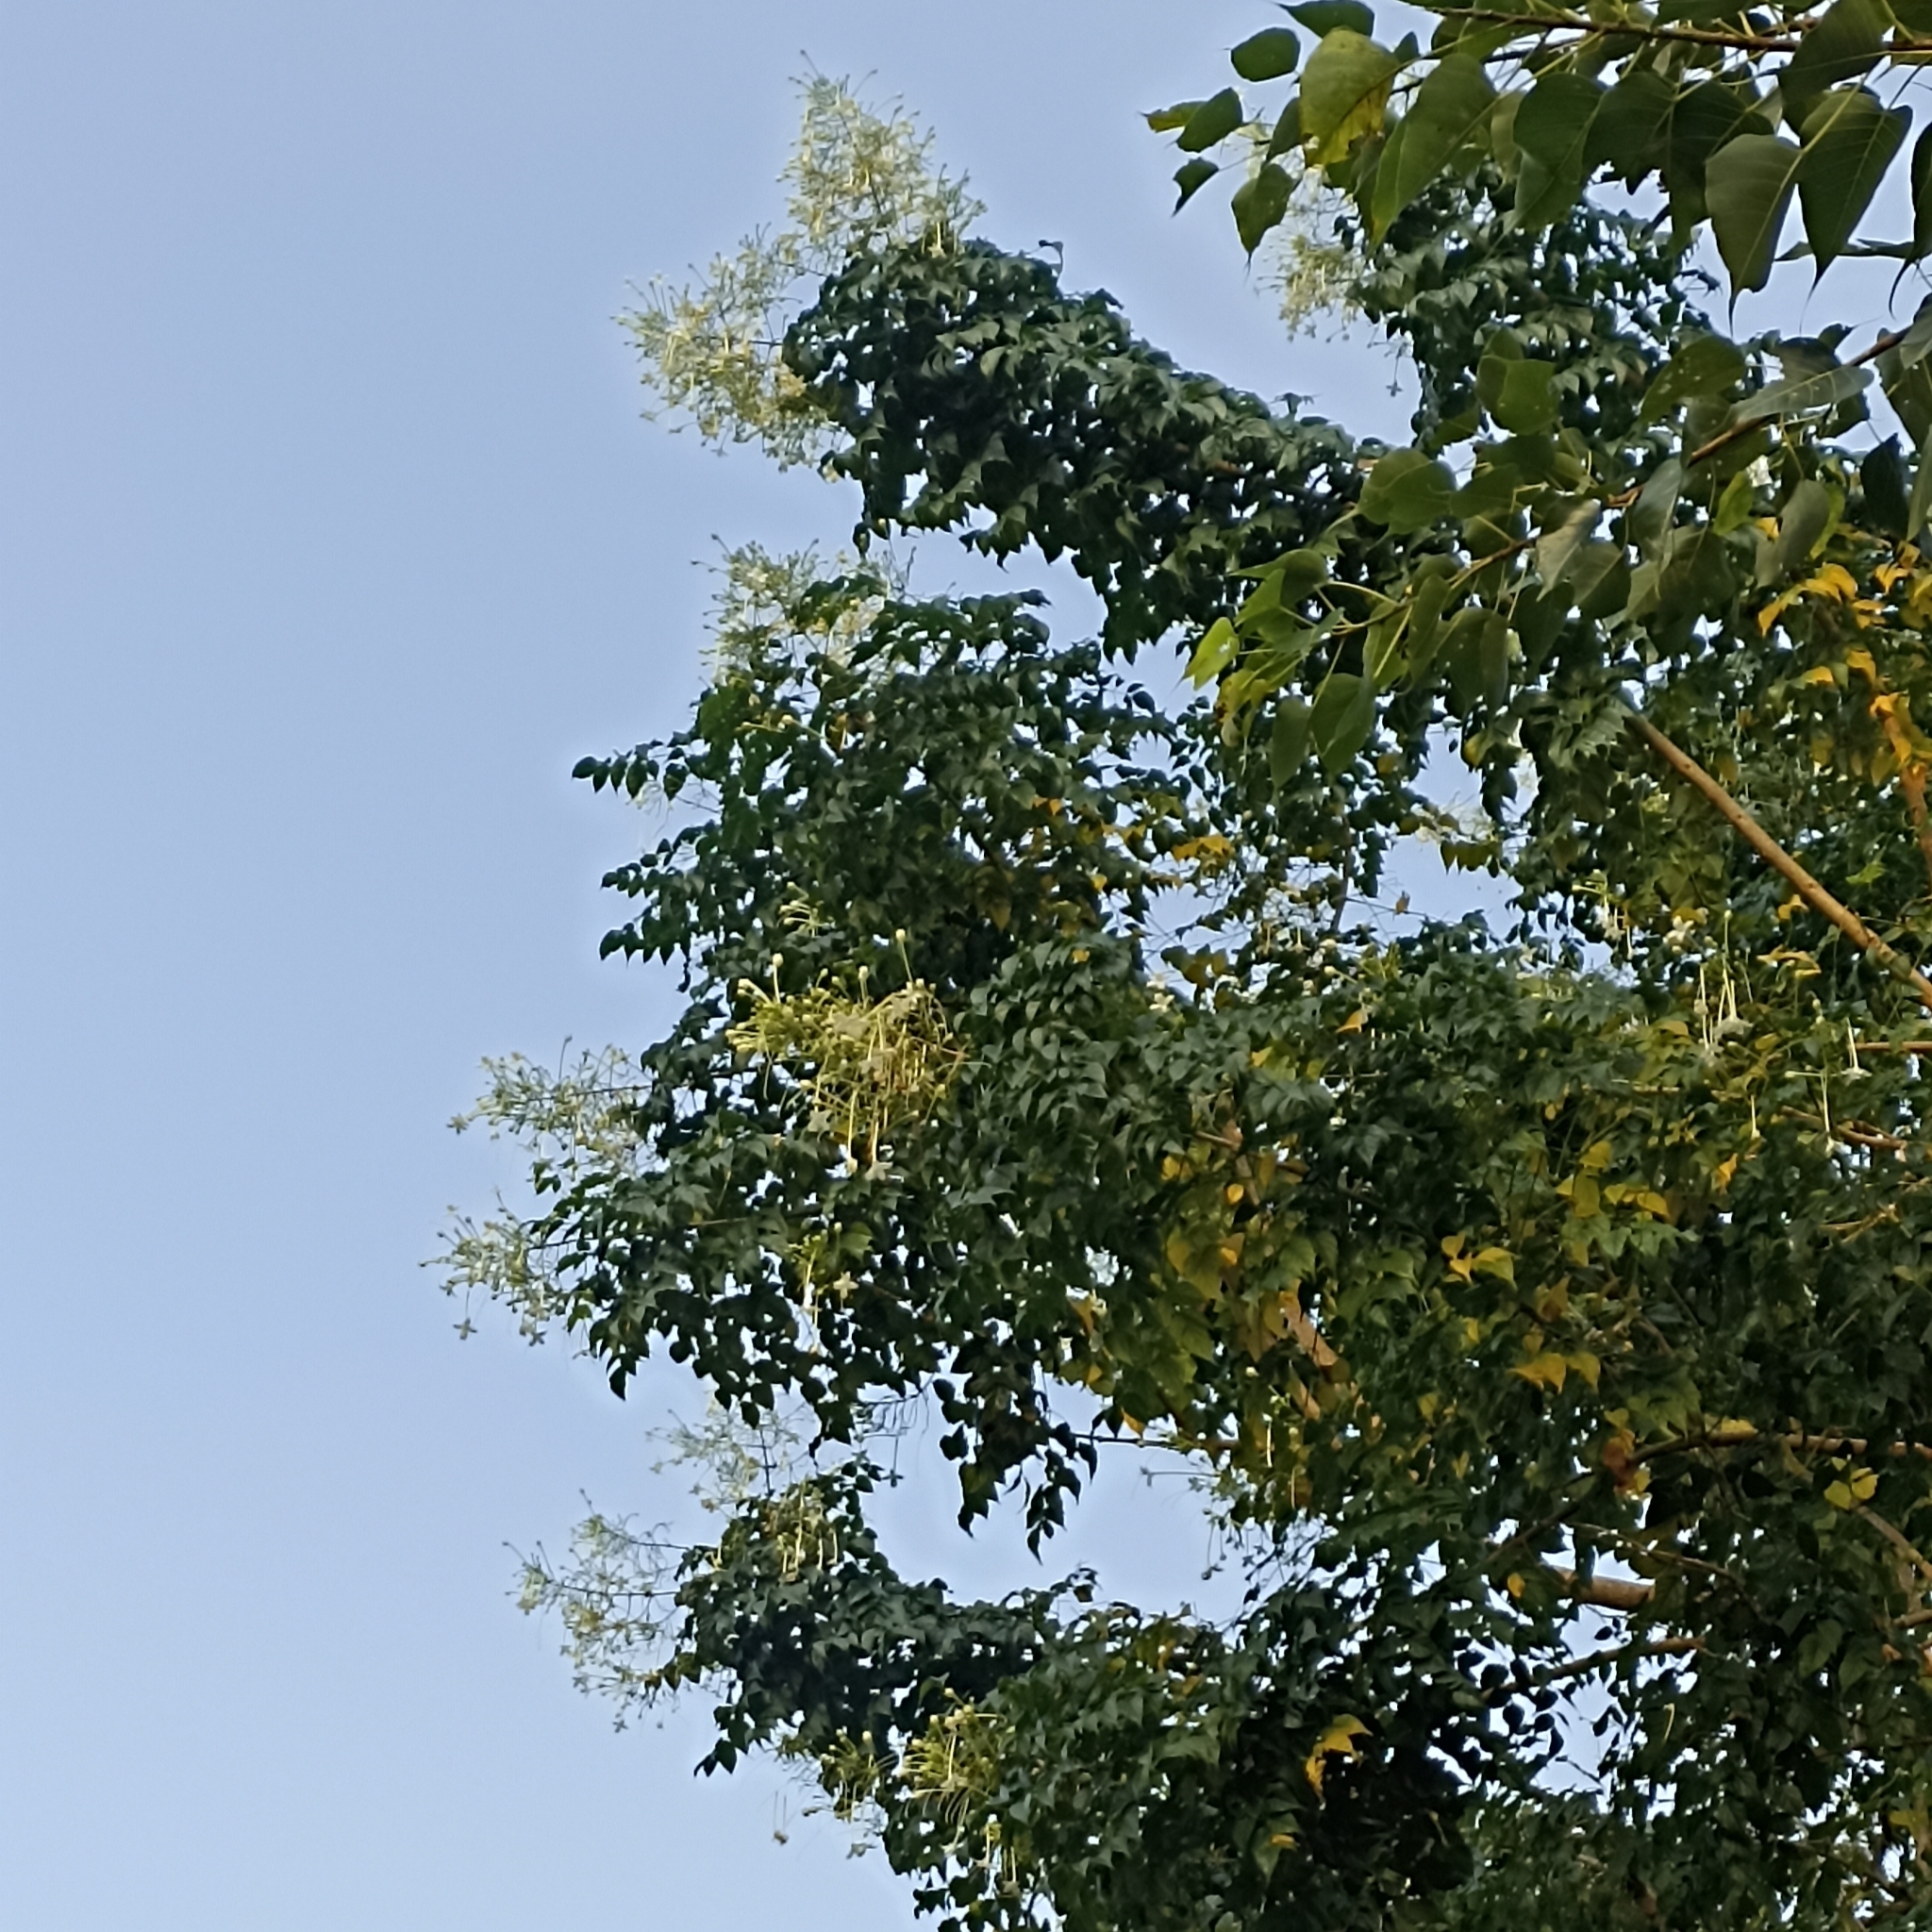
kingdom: Plantae
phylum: Tracheophyta
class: Magnoliopsida
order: Lamiales
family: Bignoniaceae
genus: Millingtonia
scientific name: Millingtonia hortensis
